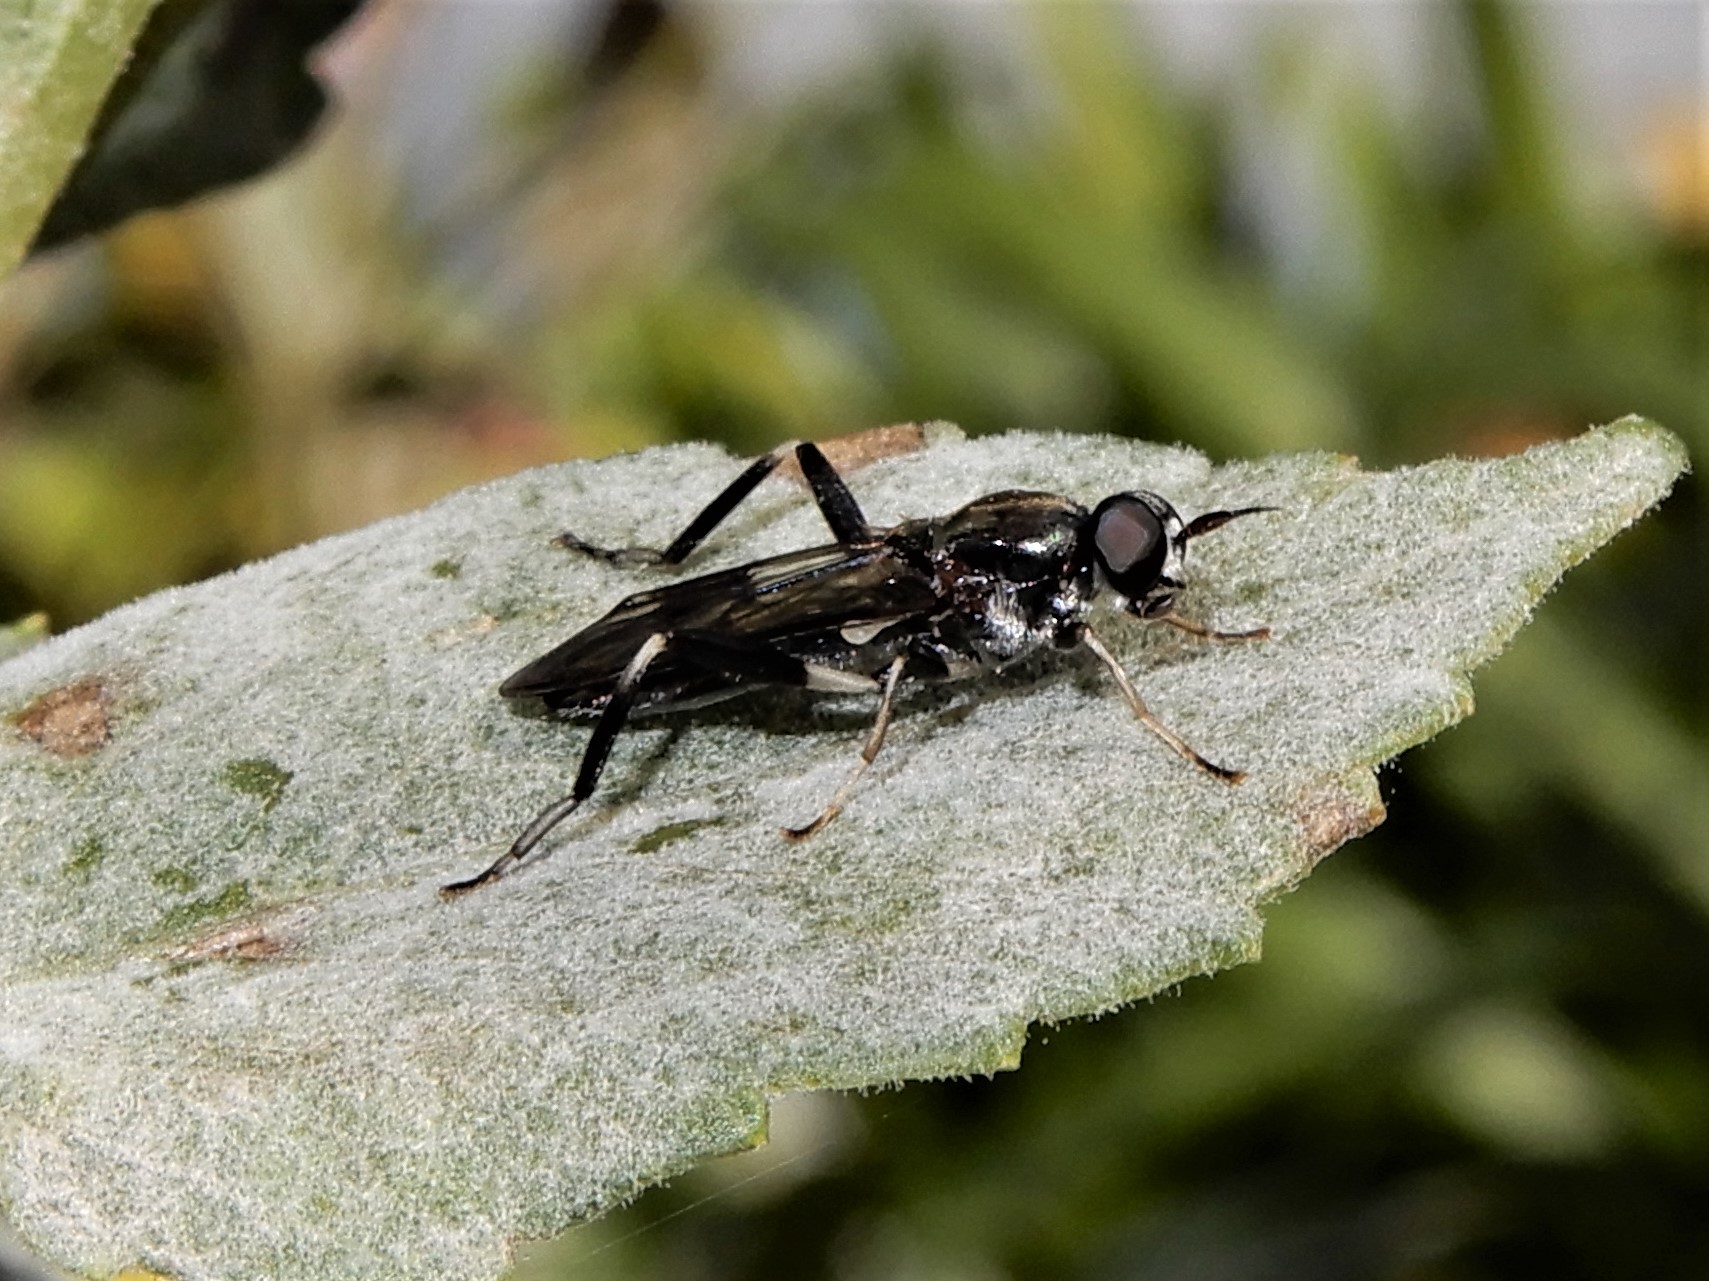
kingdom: Animalia
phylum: Arthropoda
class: Insecta
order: Diptera
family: Stratiomyidae
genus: Exaireta
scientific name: Exaireta spinigera
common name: Blue soldier fly
